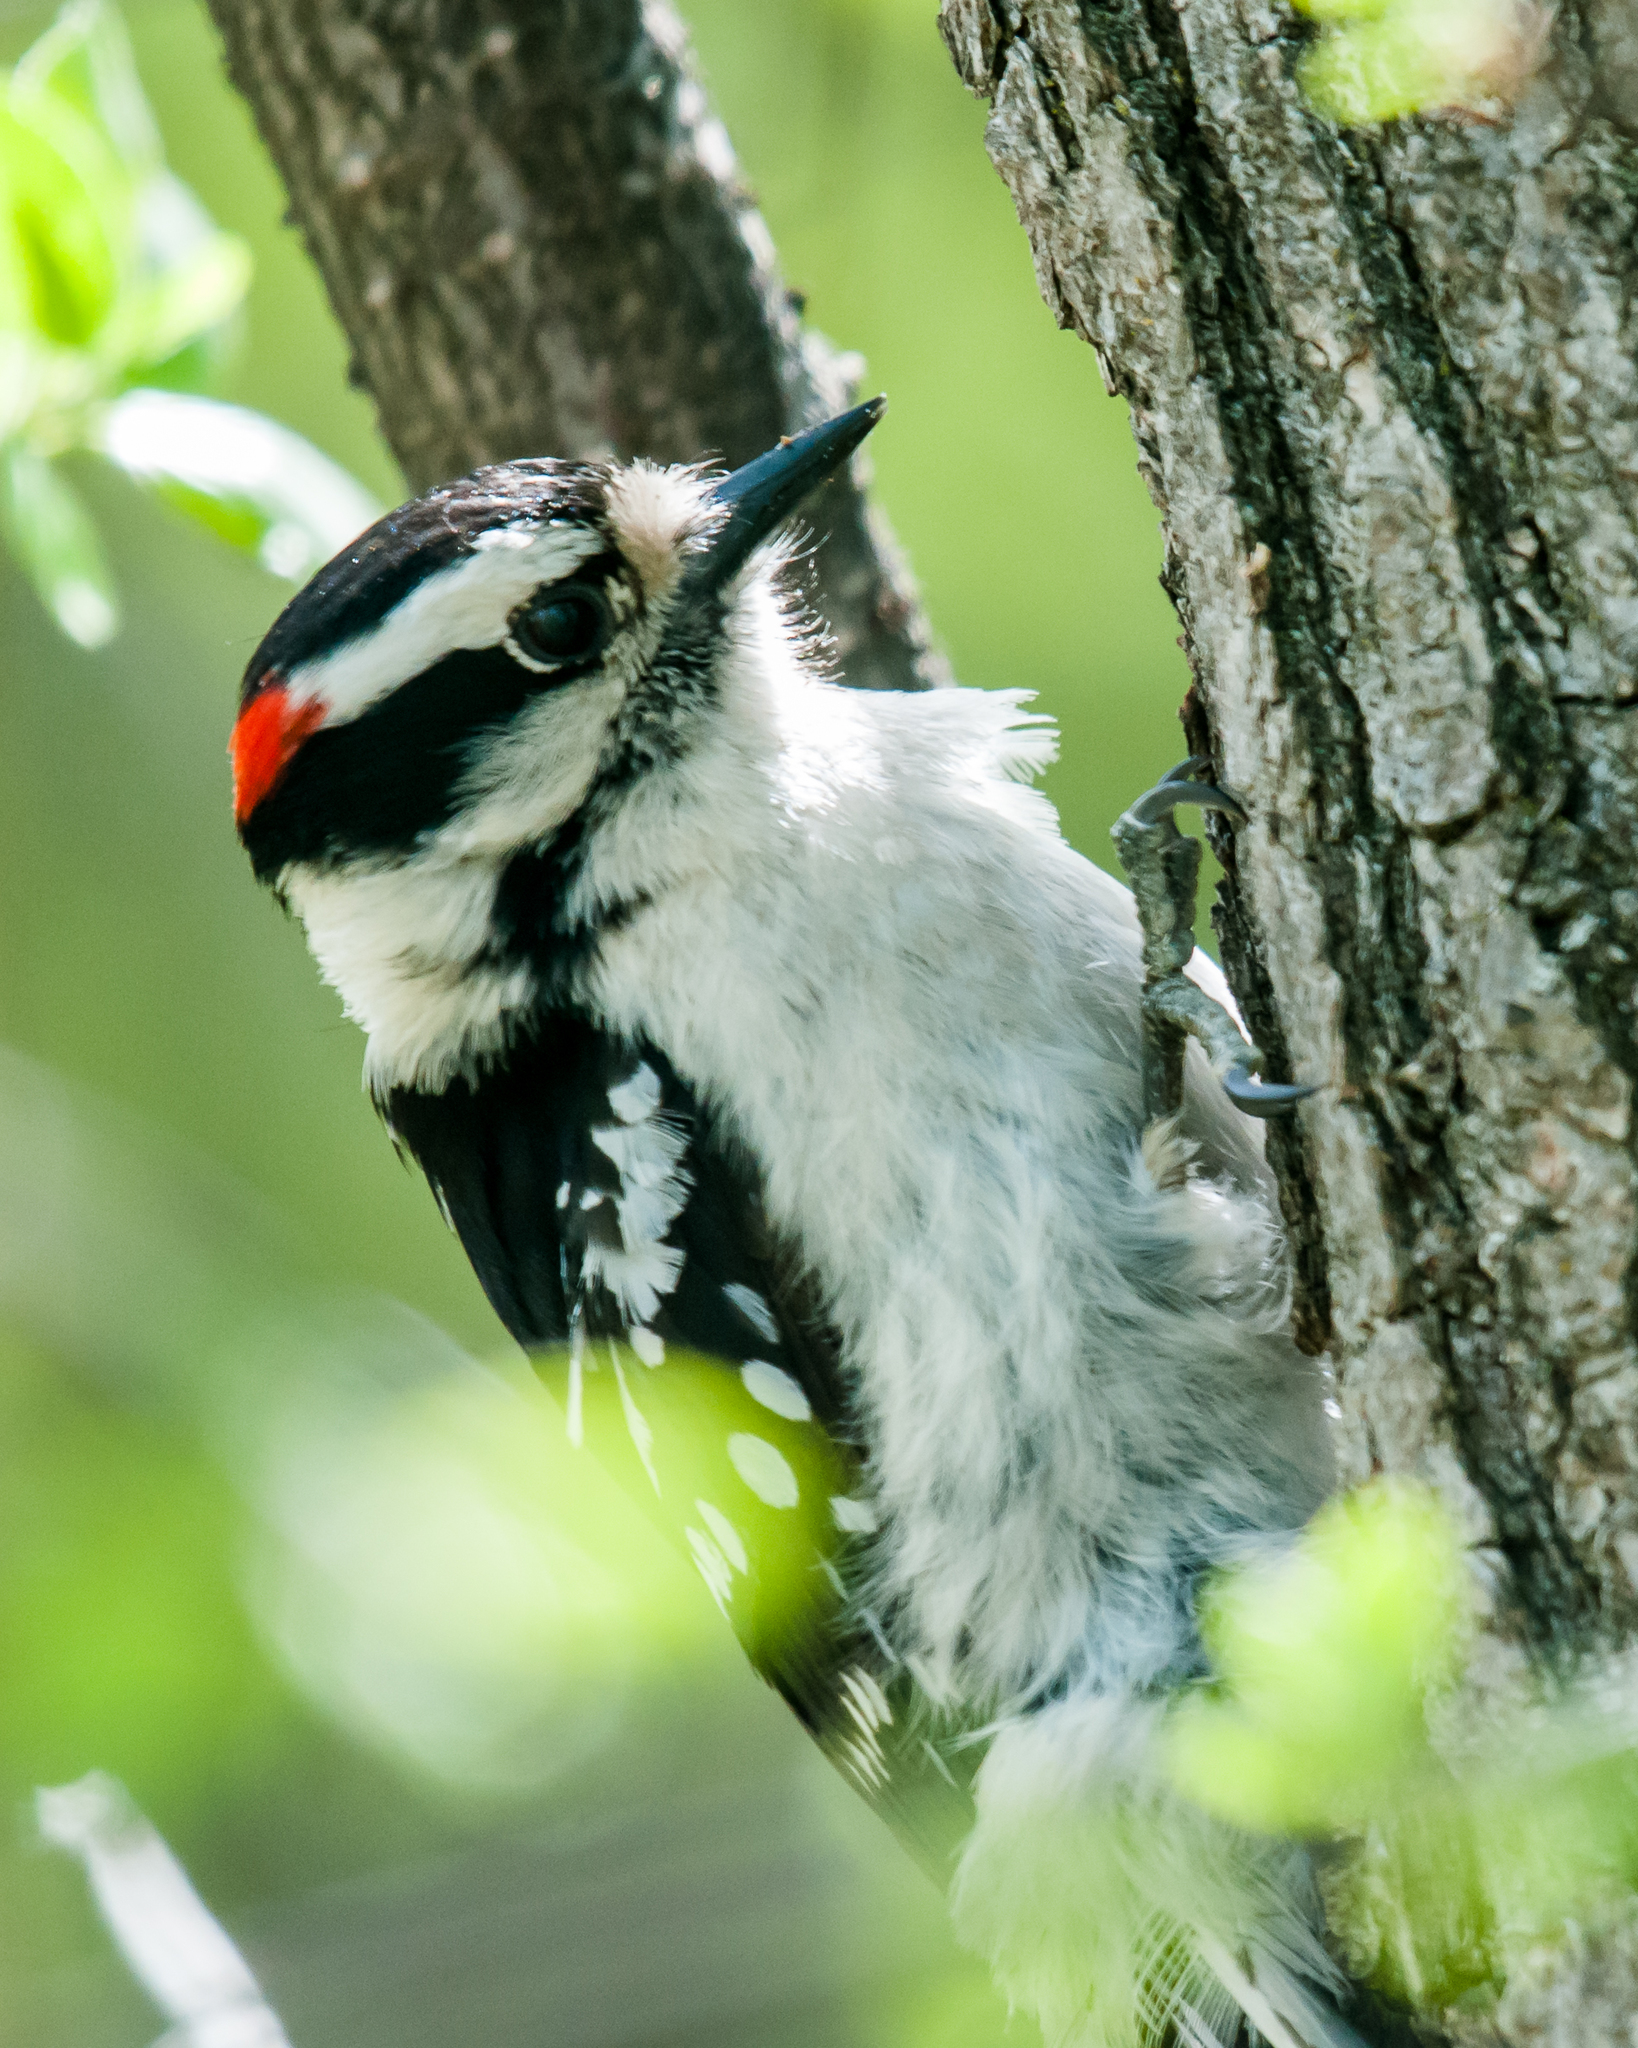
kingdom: Animalia
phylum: Chordata
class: Aves
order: Piciformes
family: Picidae
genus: Dryobates
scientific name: Dryobates pubescens
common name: Downy woodpecker
